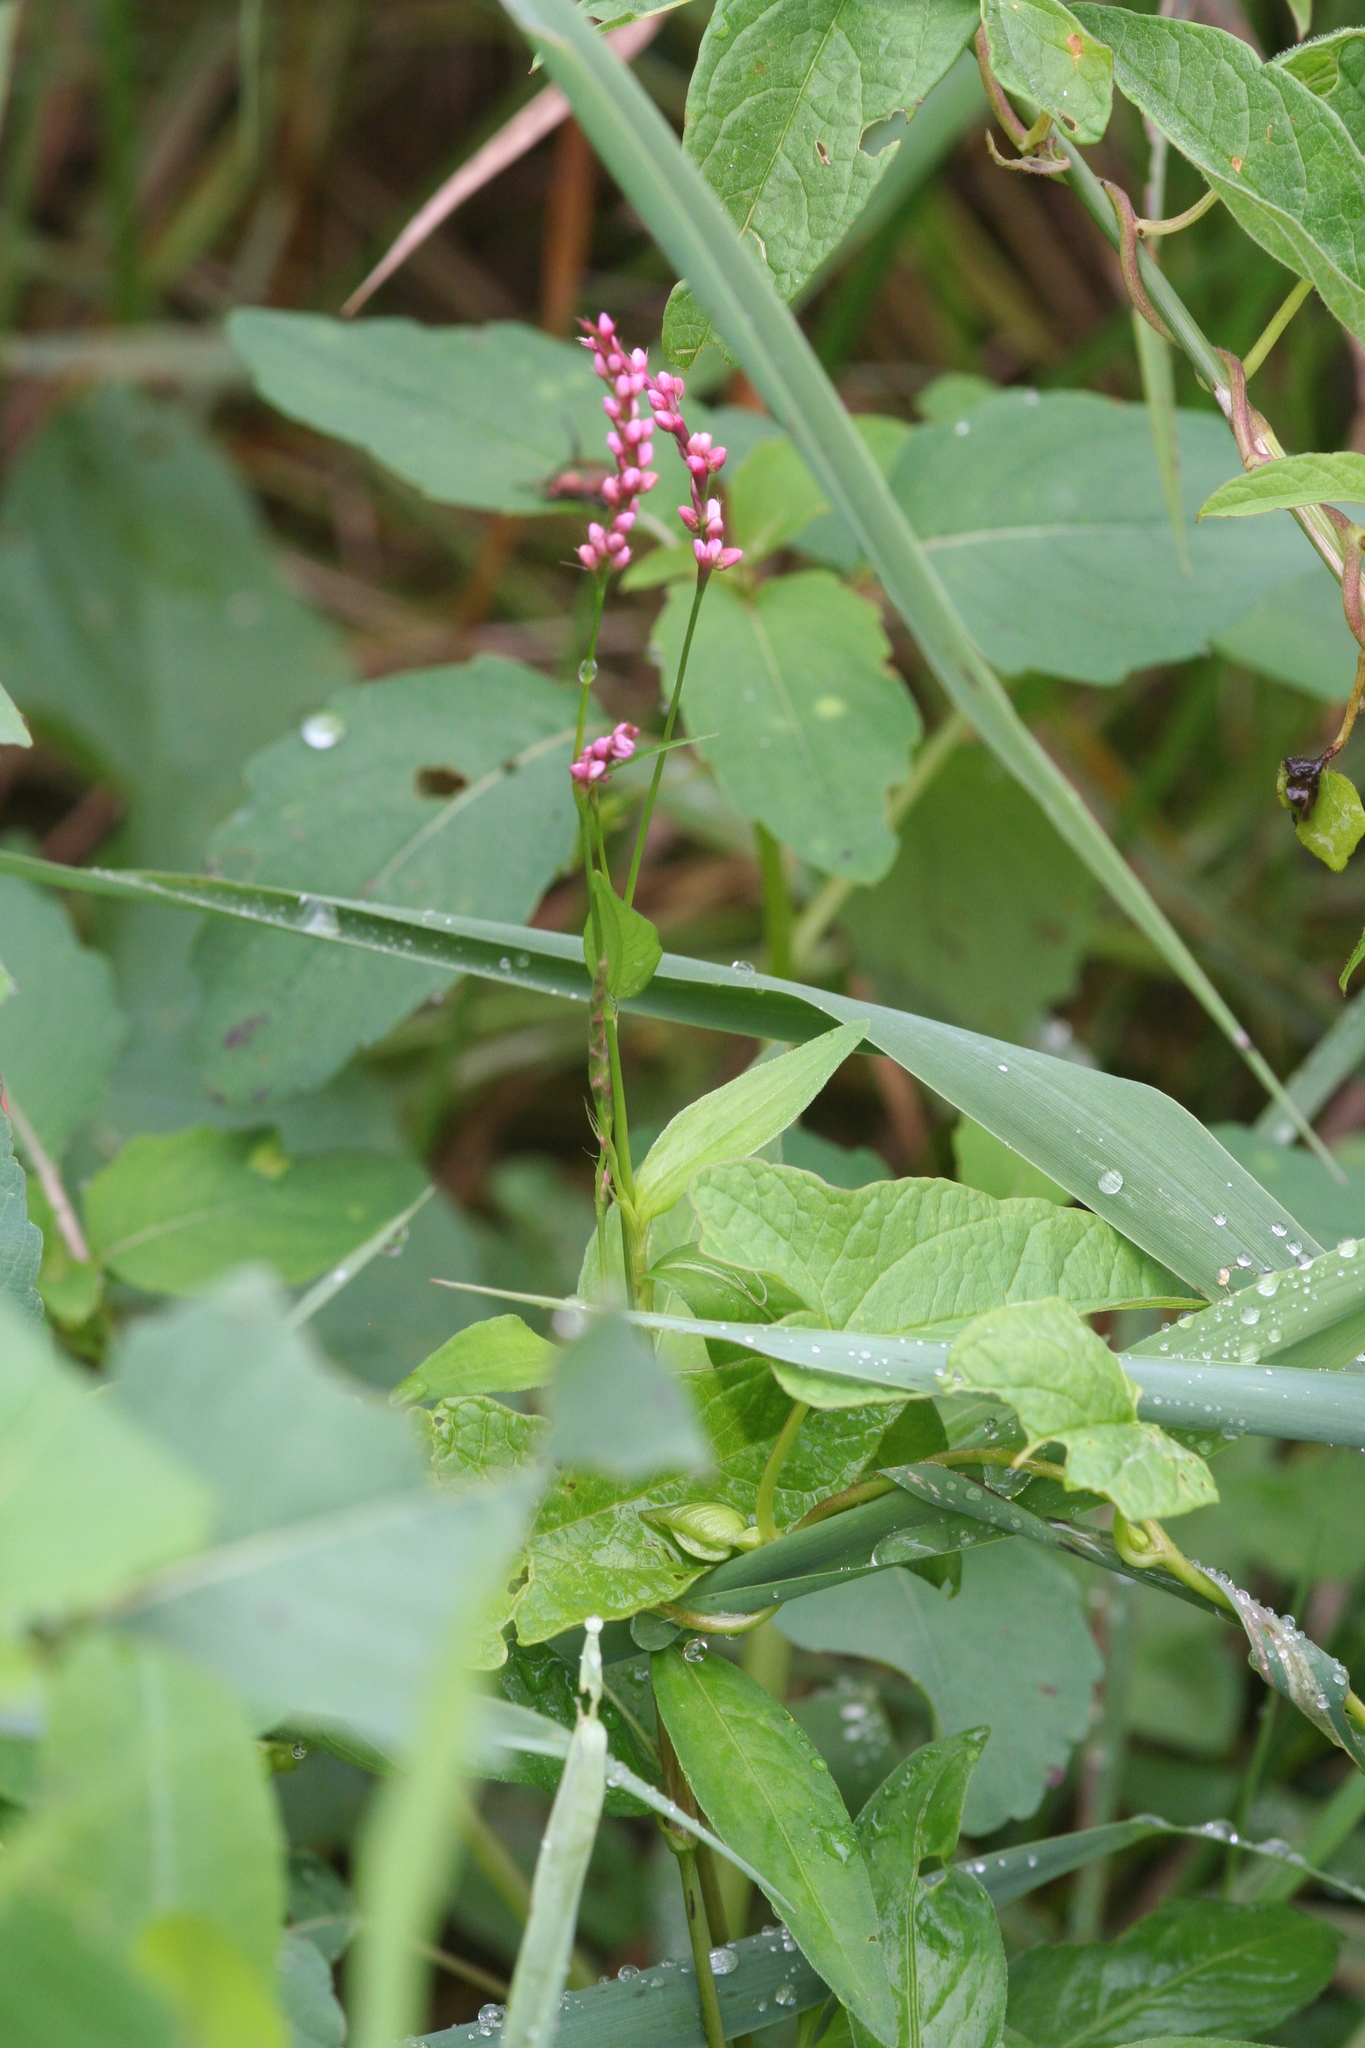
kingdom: Plantae
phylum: Tracheophyta
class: Magnoliopsida
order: Caryophyllales
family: Polygonaceae
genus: Persicaria
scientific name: Persicaria longiseta
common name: Bristly lady's-thumb
